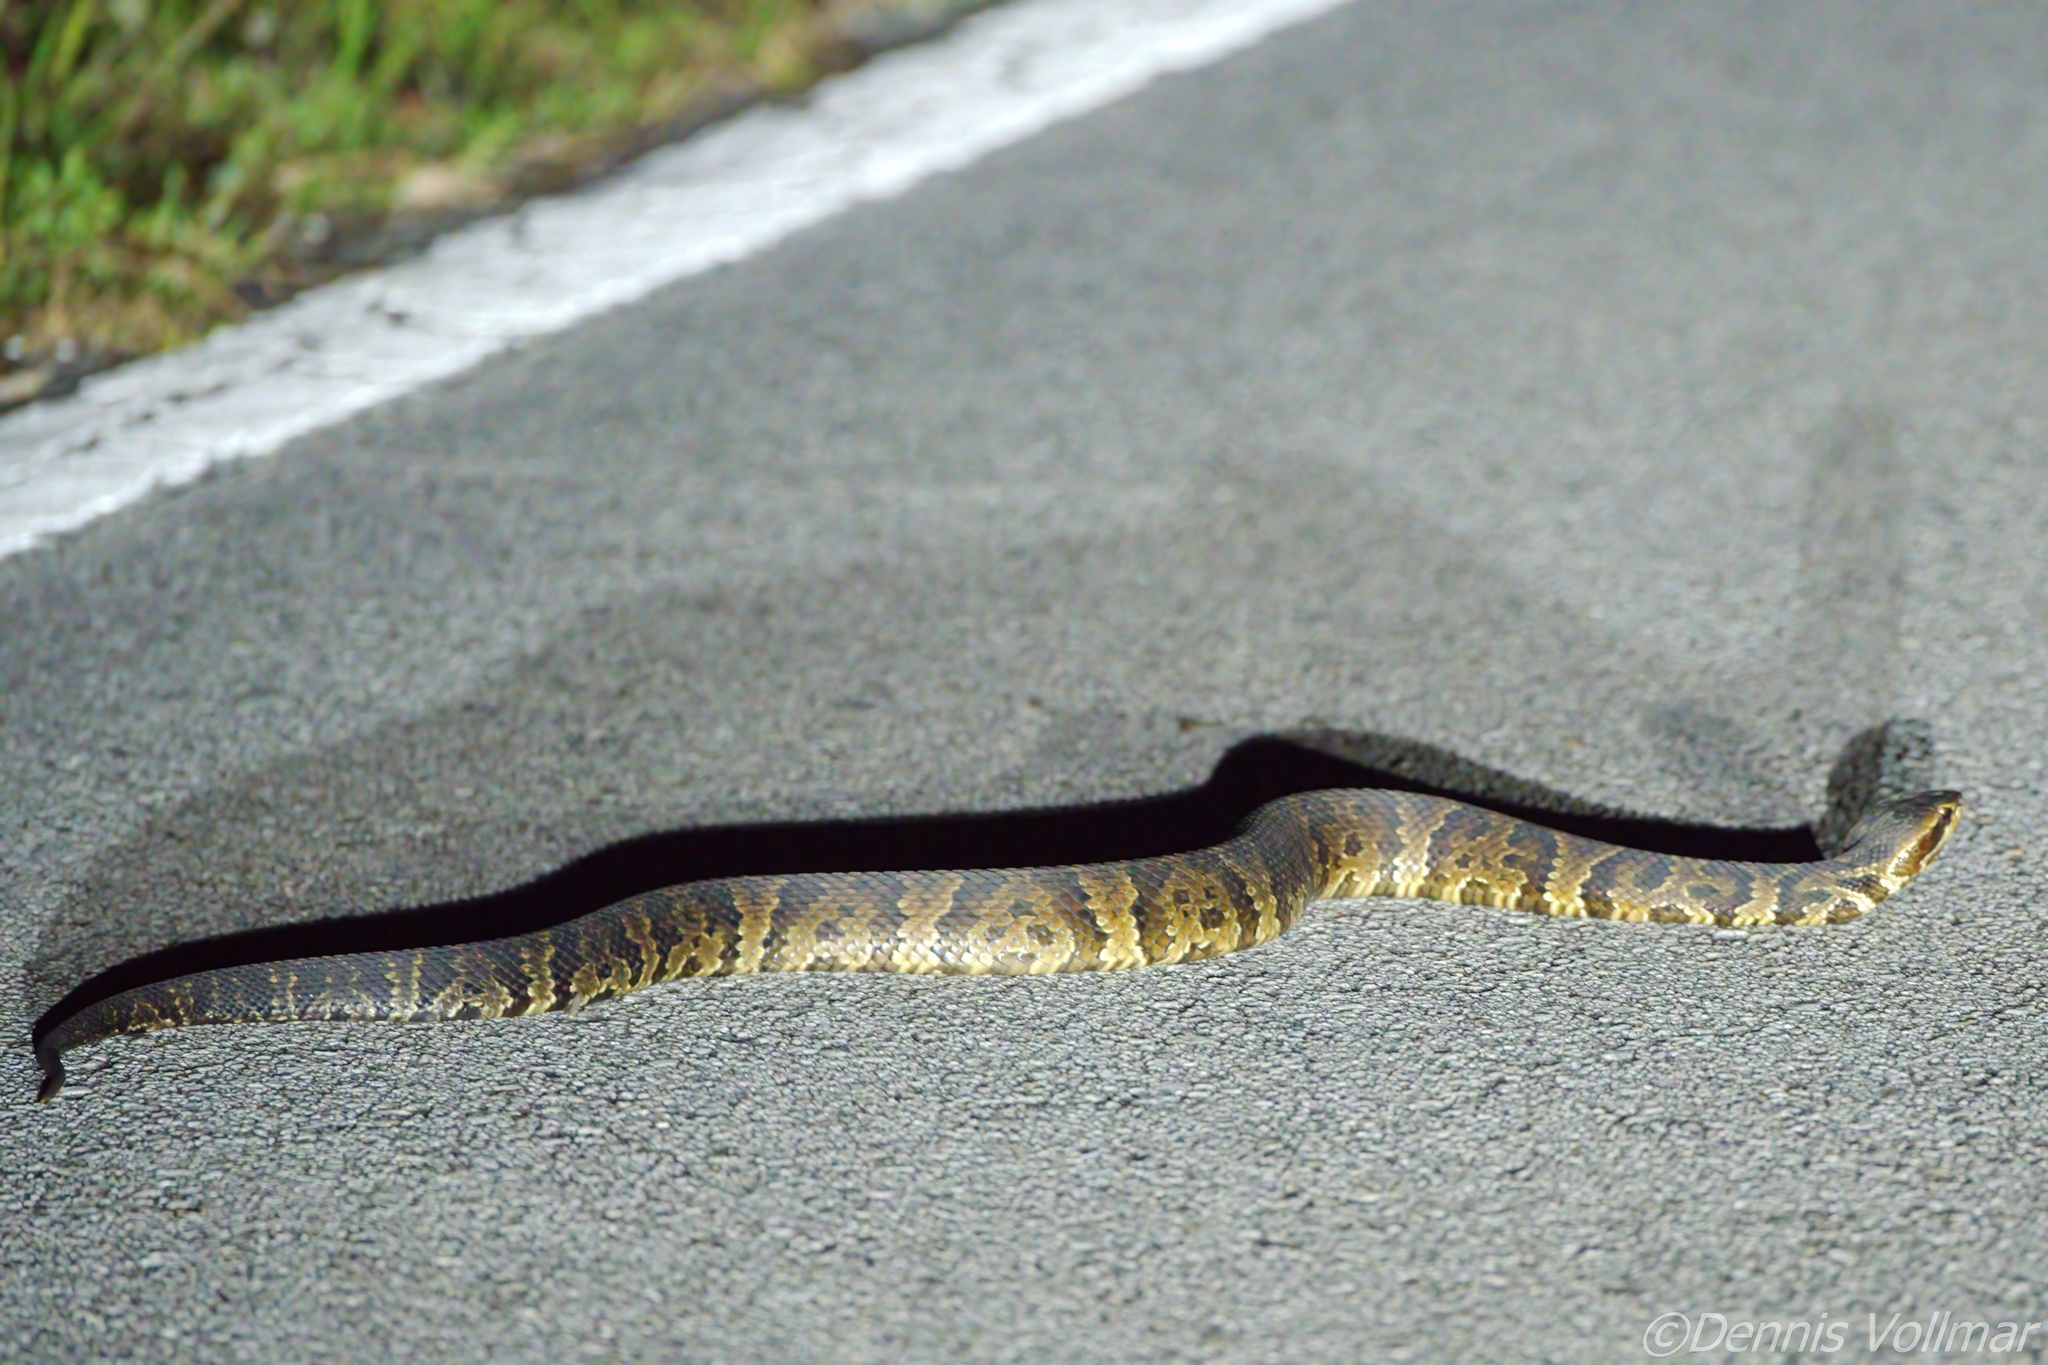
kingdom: Animalia
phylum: Chordata
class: Squamata
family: Viperidae
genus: Agkistrodon
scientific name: Agkistrodon conanti
